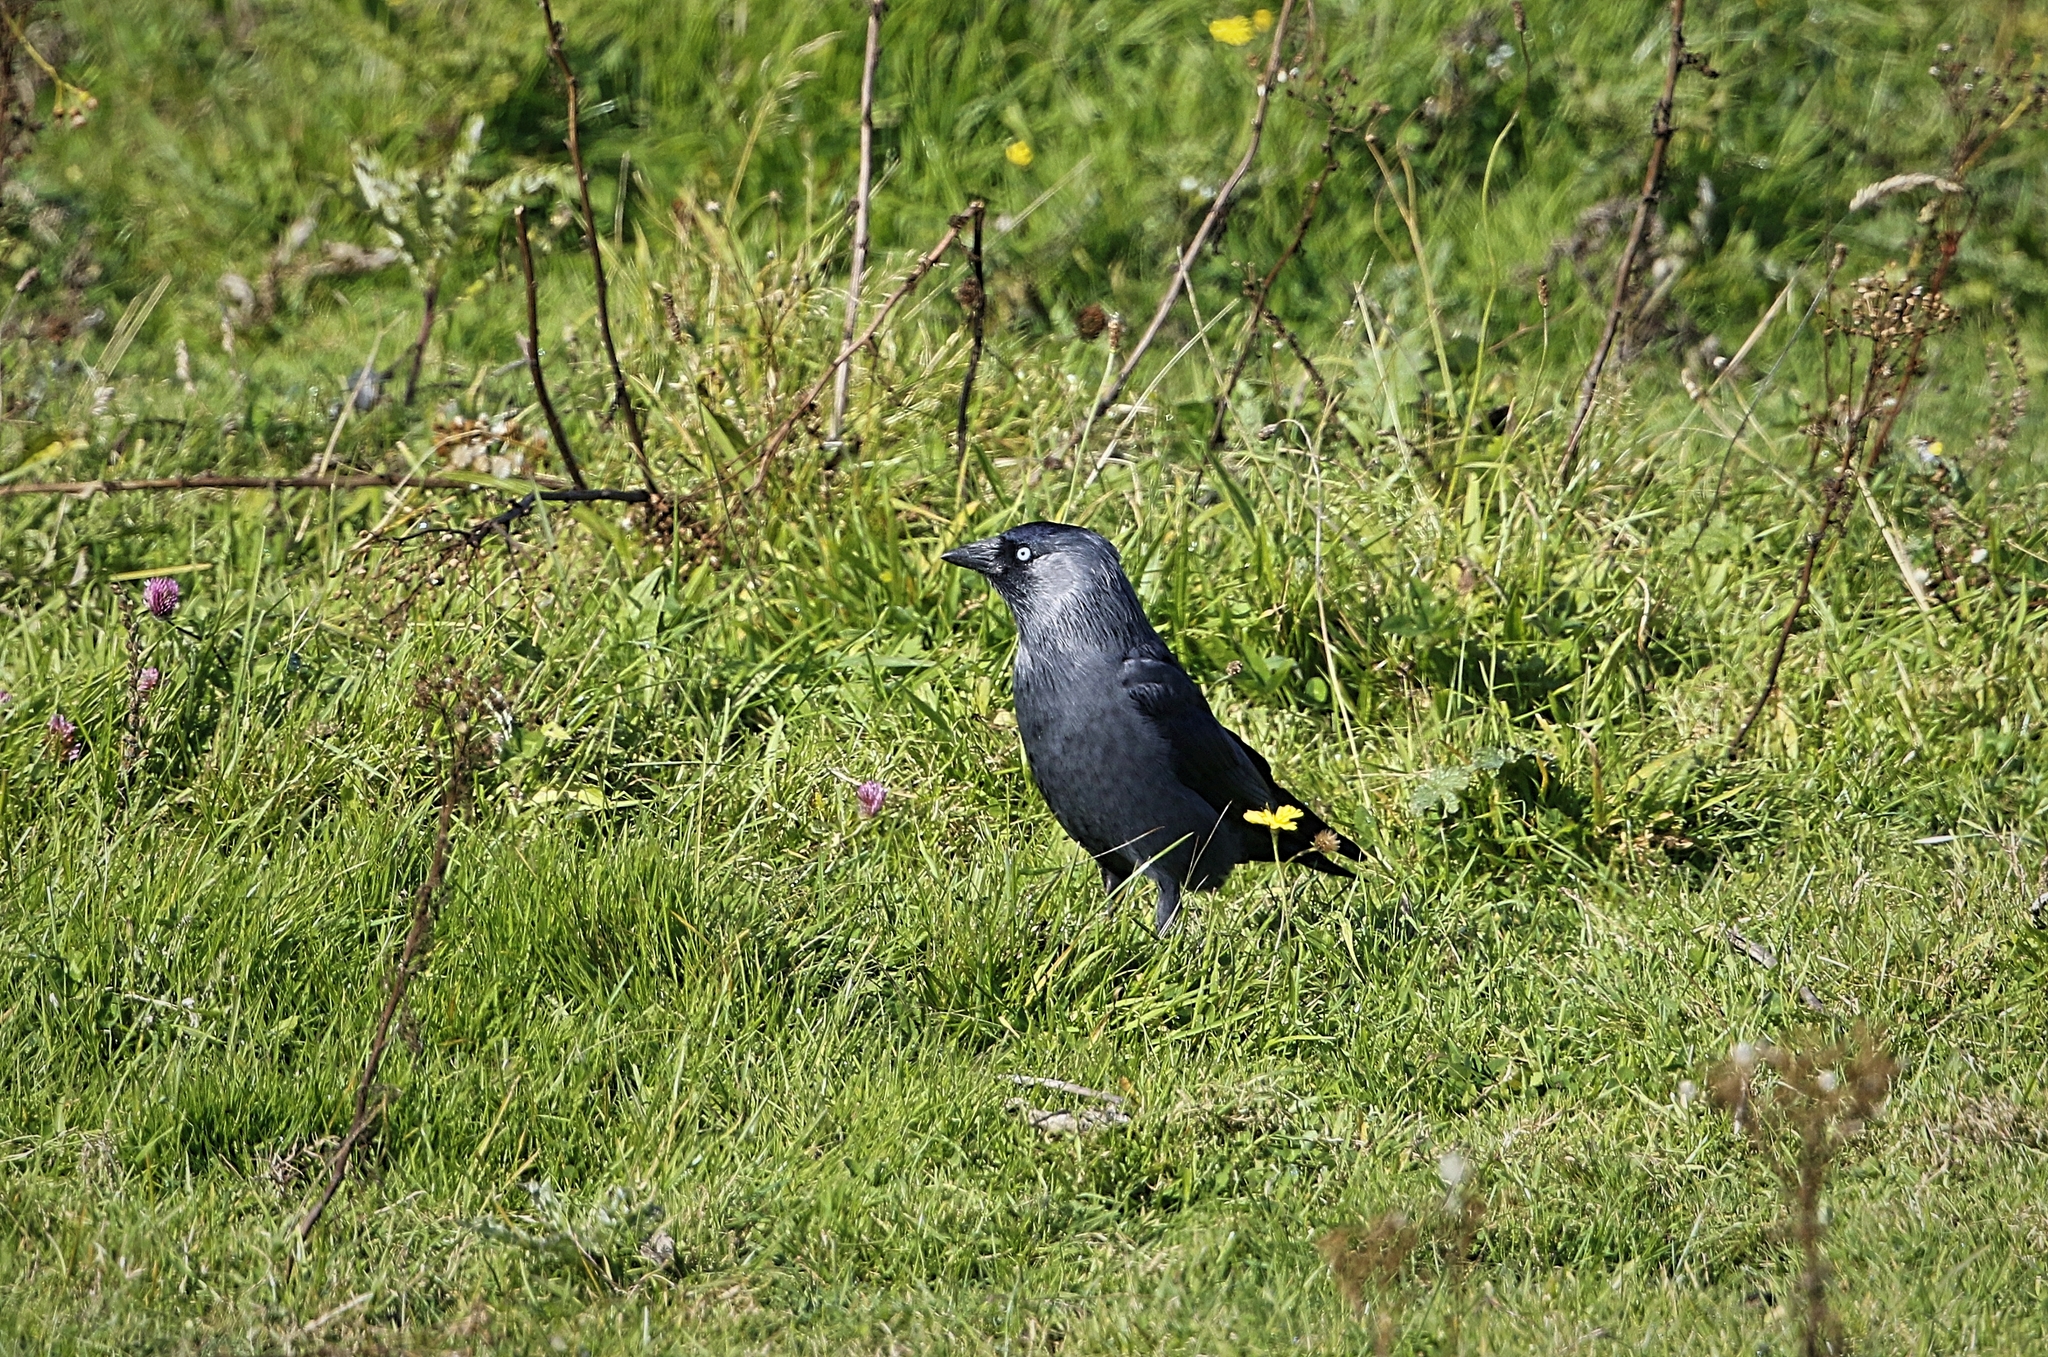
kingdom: Animalia
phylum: Chordata
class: Aves
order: Passeriformes
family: Corvidae
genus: Coloeus
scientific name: Coloeus monedula
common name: Western jackdaw
